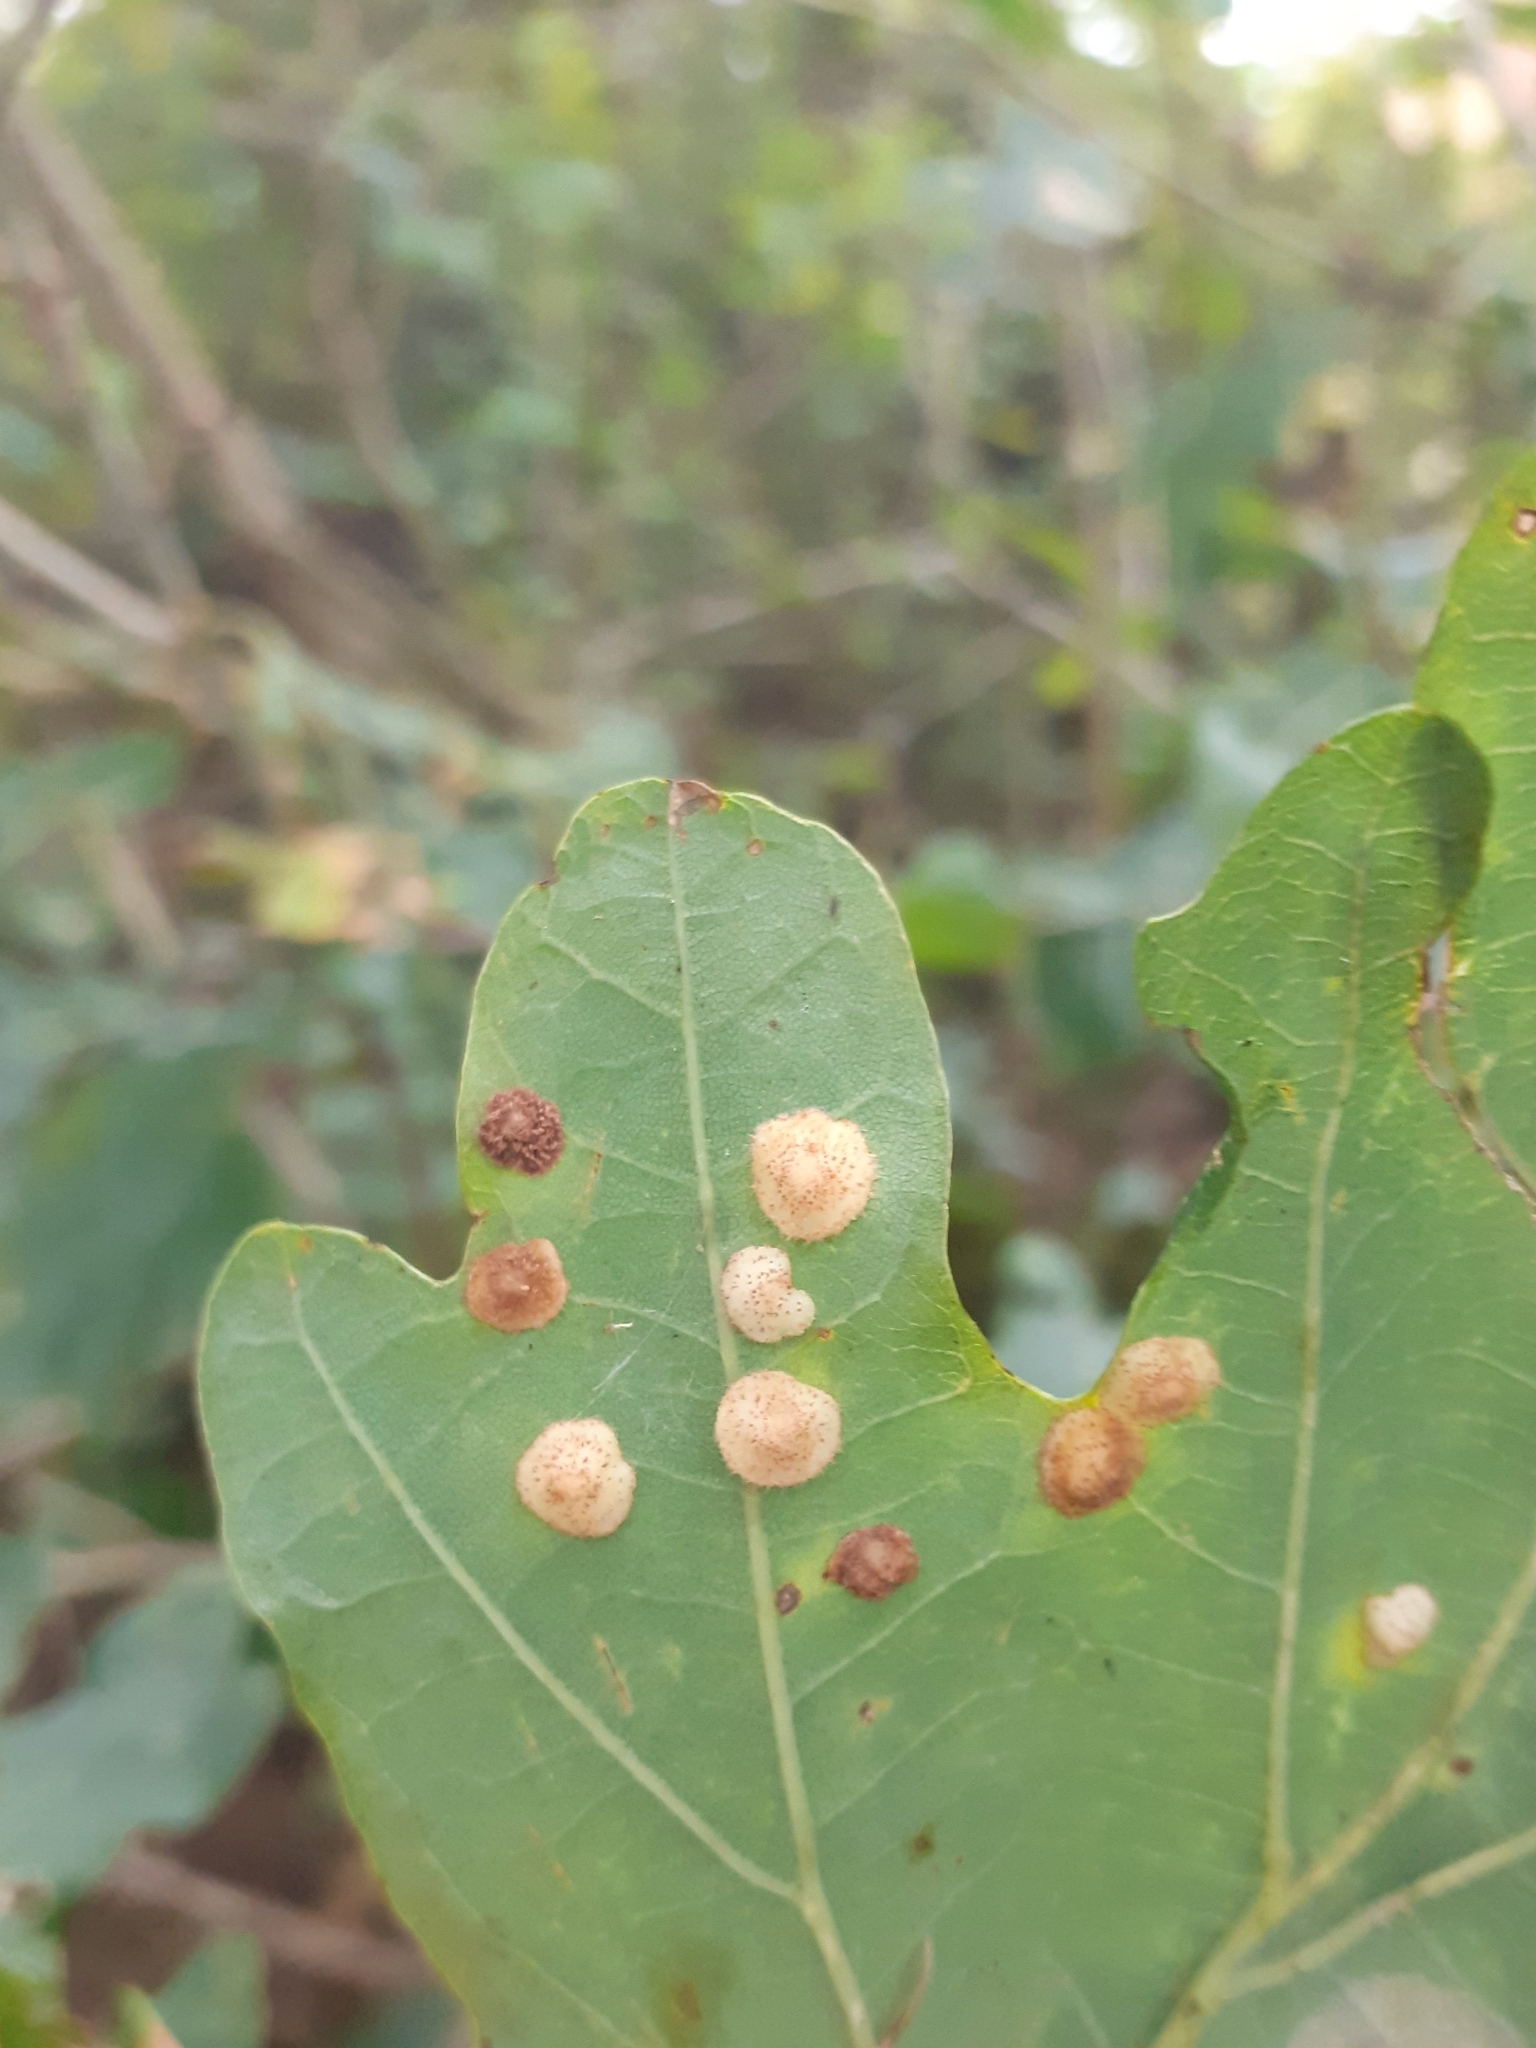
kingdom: Animalia
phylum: Arthropoda
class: Insecta
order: Hymenoptera
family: Cynipidae
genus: Neuroterus
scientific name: Neuroterus quercusbaccarum
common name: Common spangle gall
